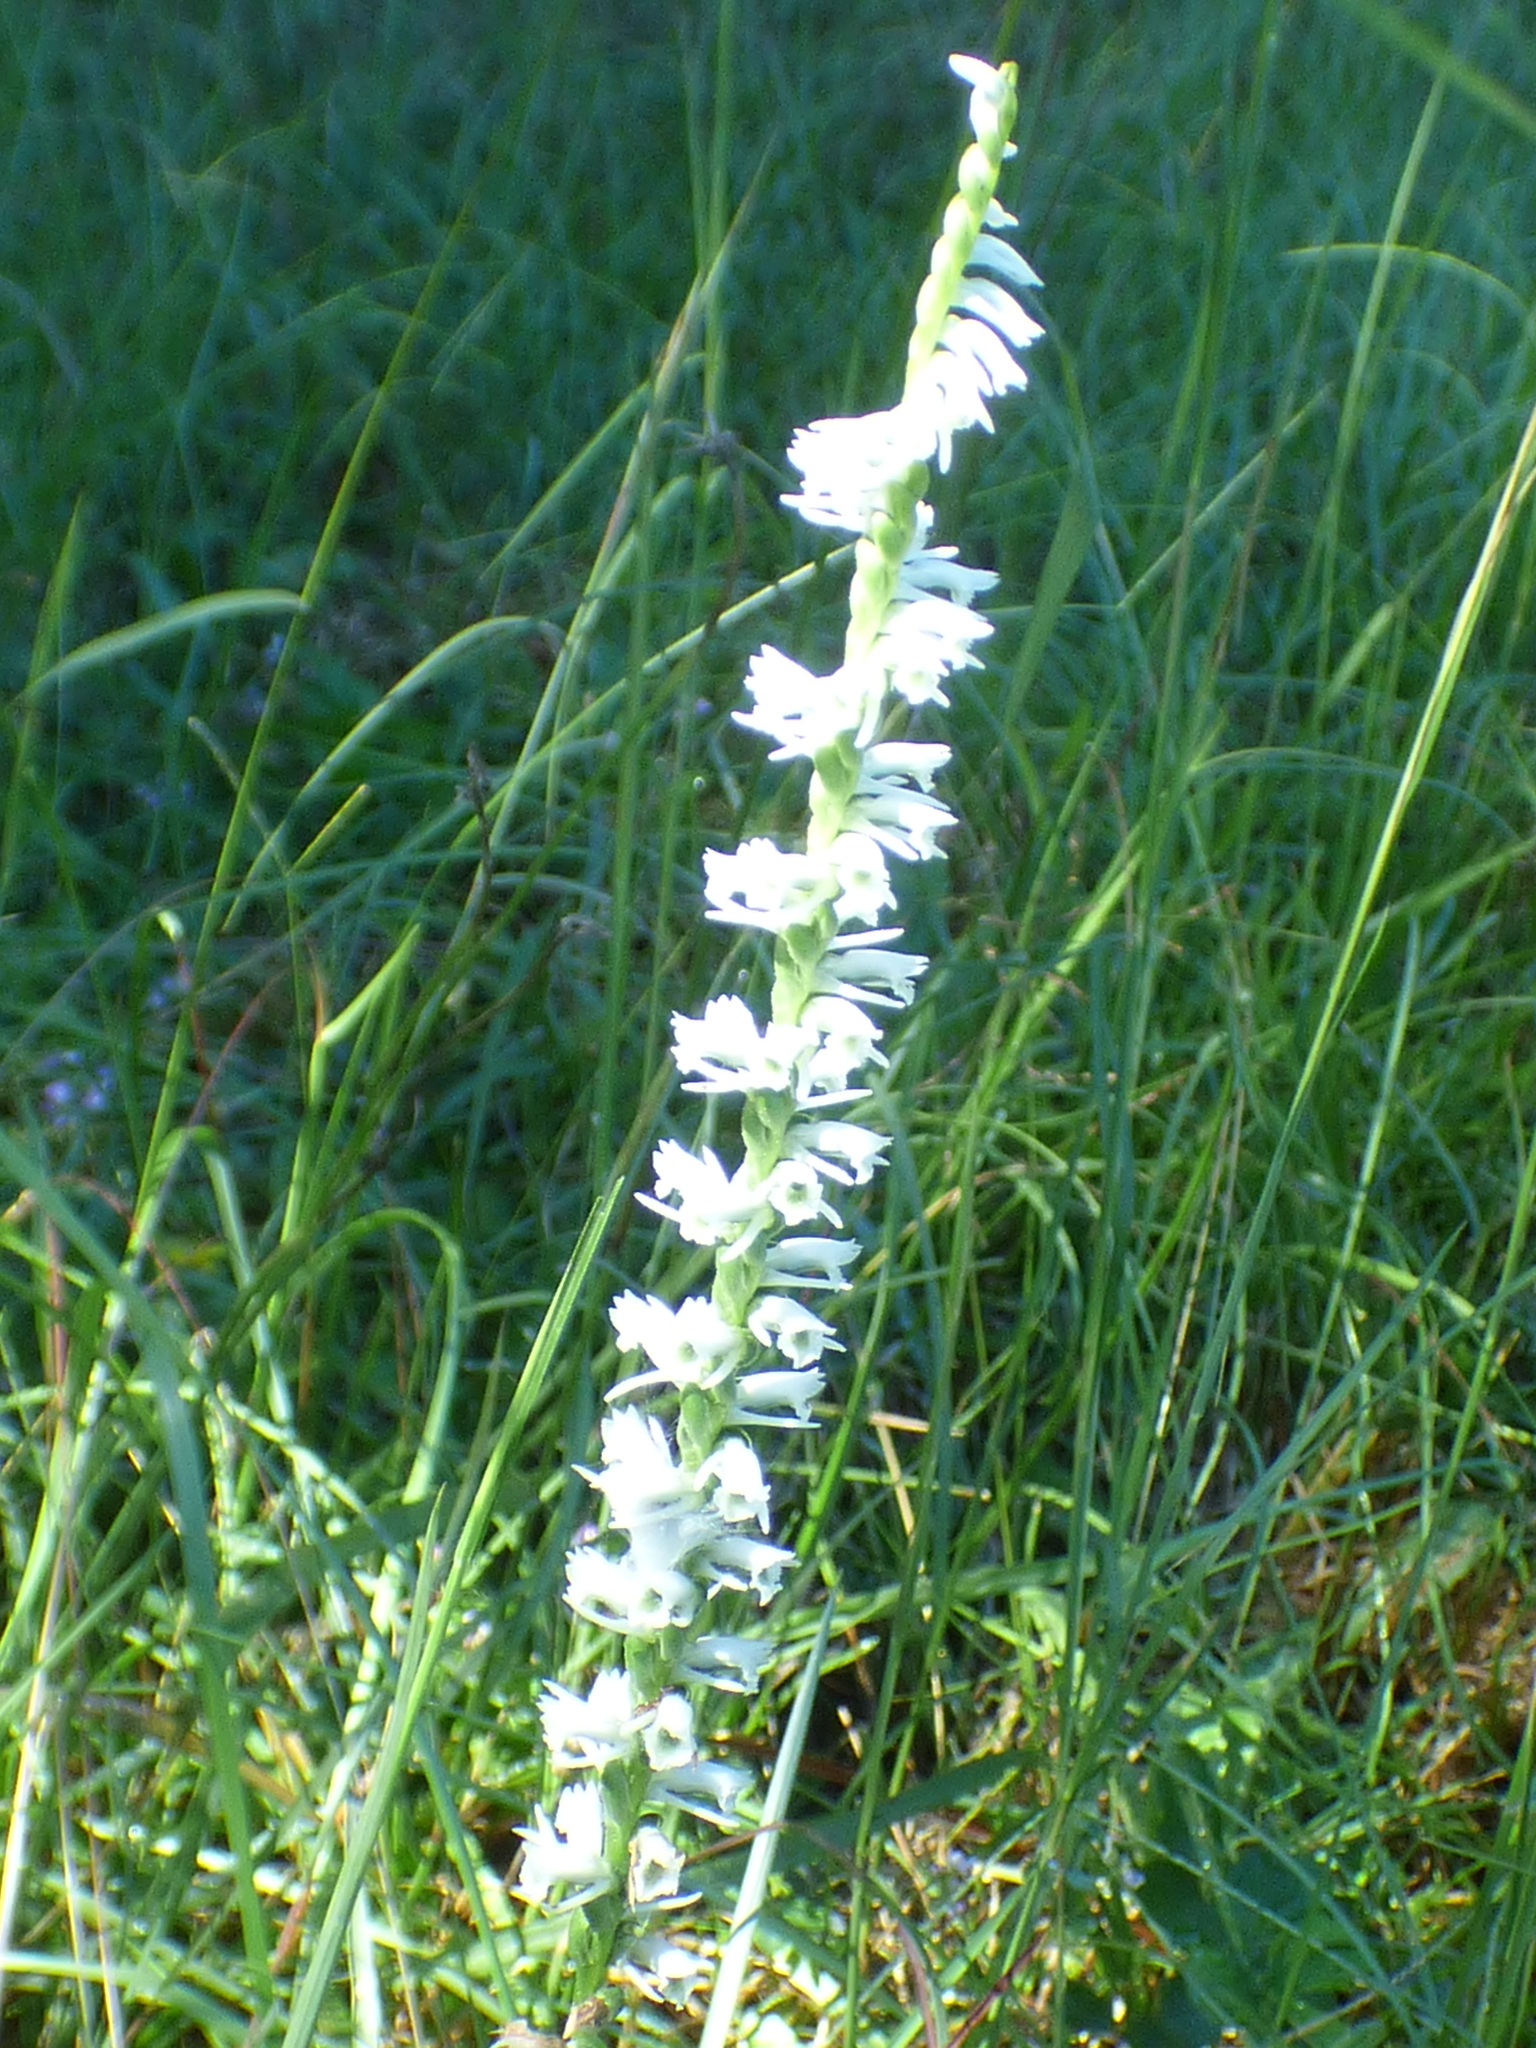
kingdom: Plantae
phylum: Tracheophyta
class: Liliopsida
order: Asparagales
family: Orchidaceae
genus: Spiranthes
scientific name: Spiranthes lacera
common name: Northern slender ladies'-tresses
